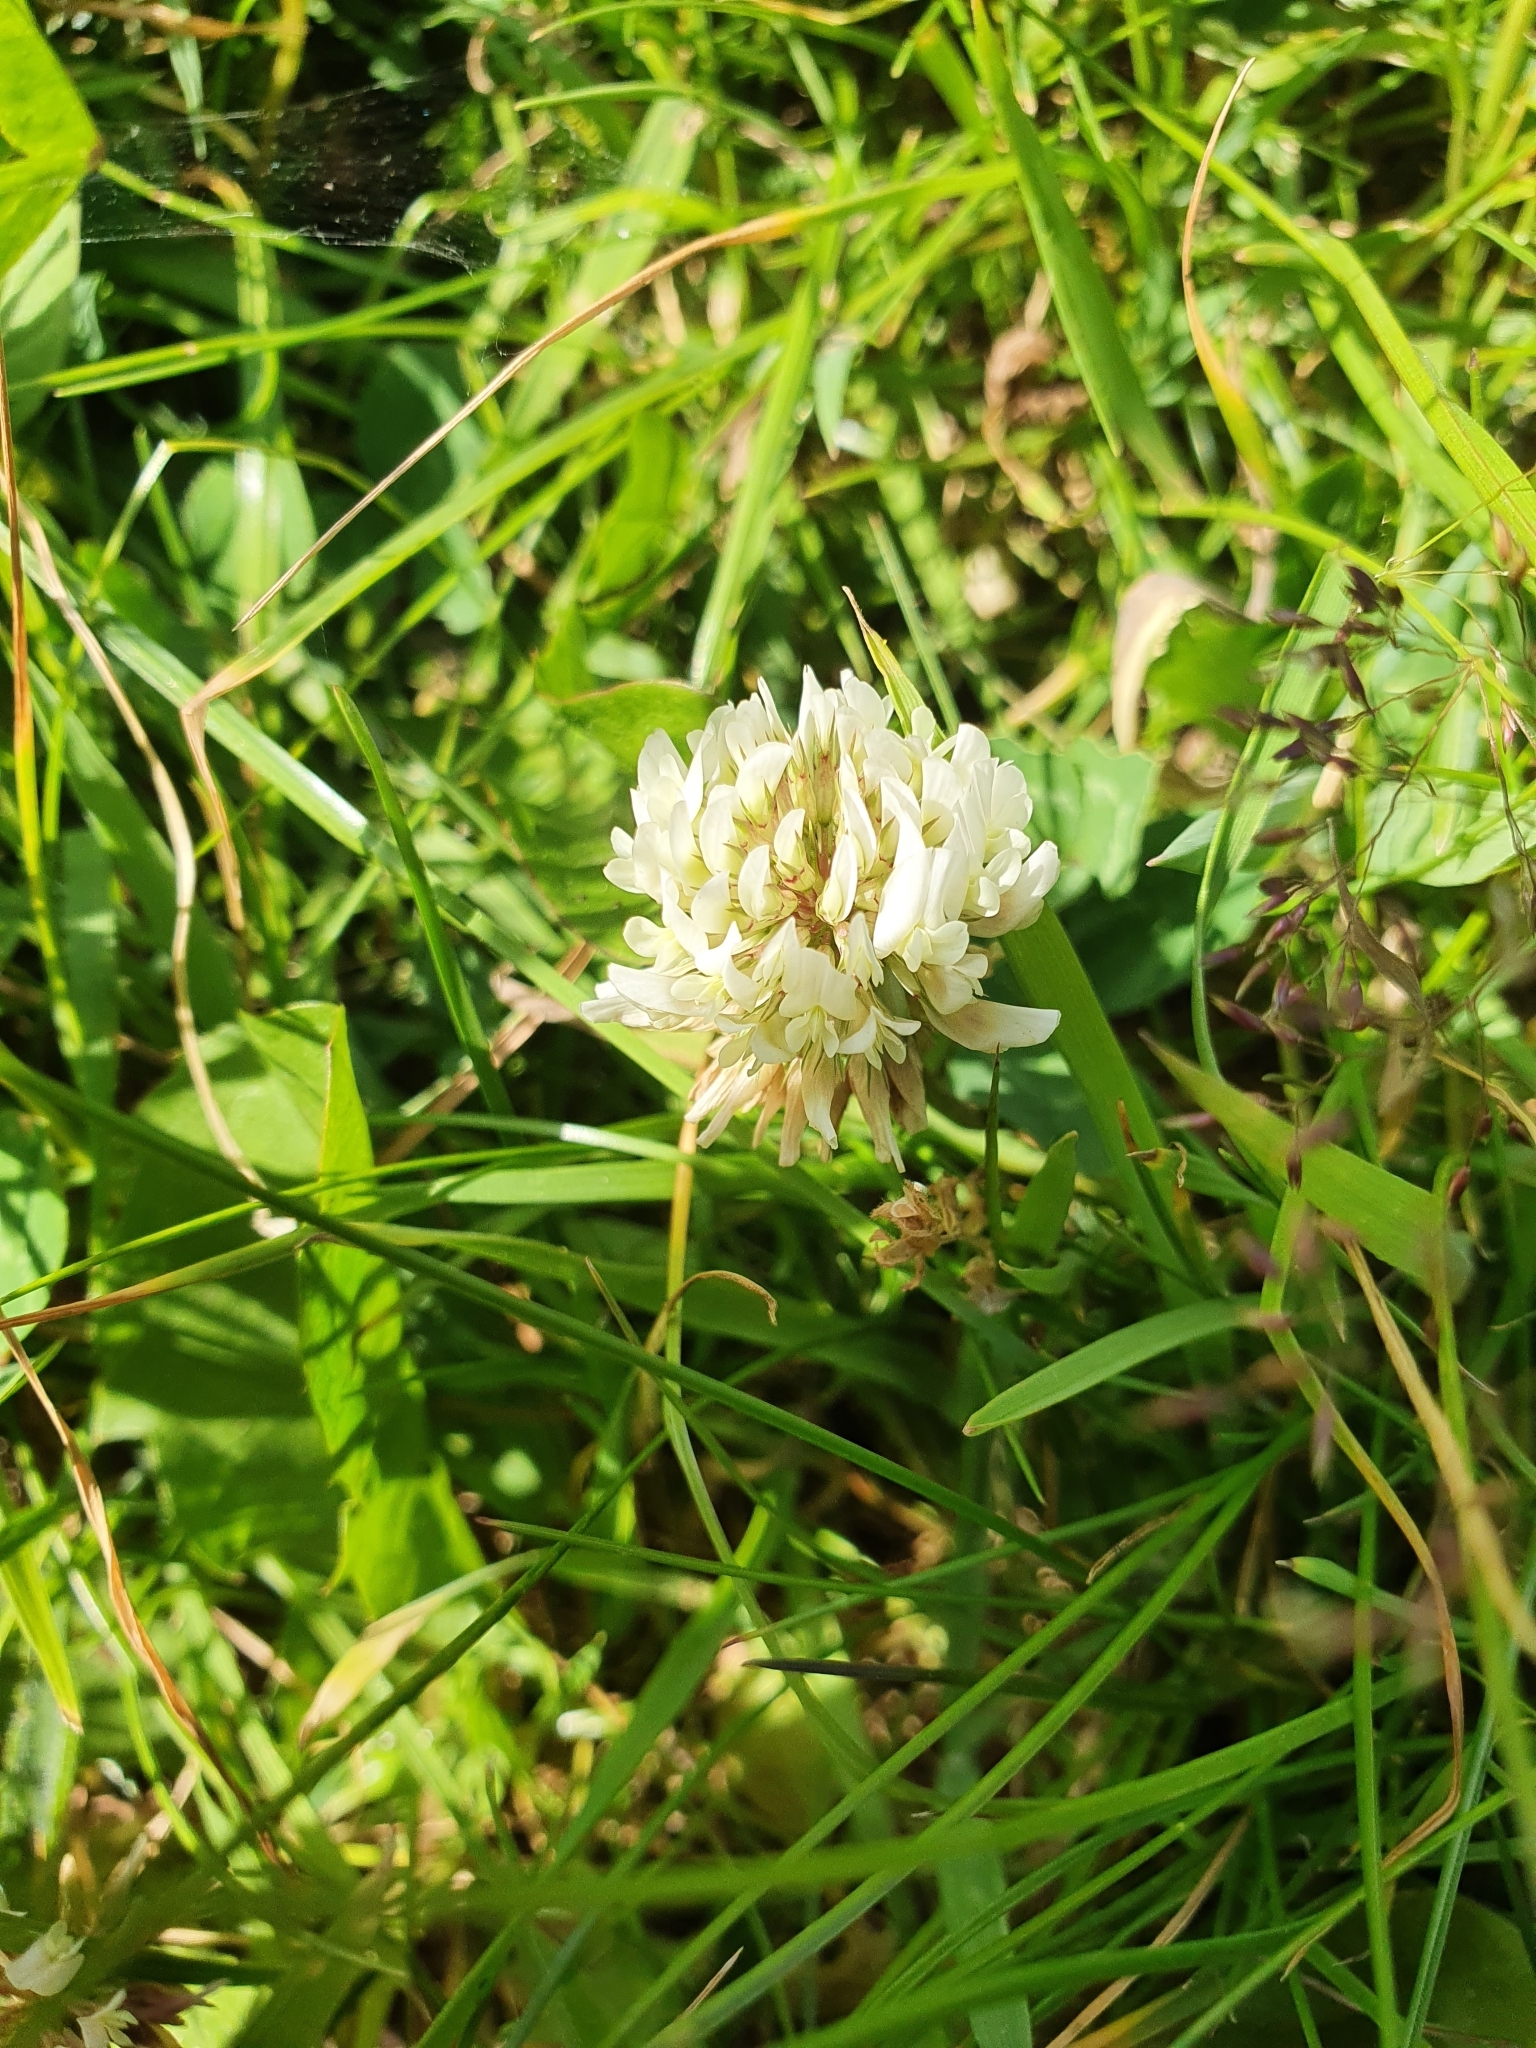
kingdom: Plantae
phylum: Tracheophyta
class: Magnoliopsida
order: Fabales
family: Fabaceae
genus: Trifolium
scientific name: Trifolium repens
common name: White clover
